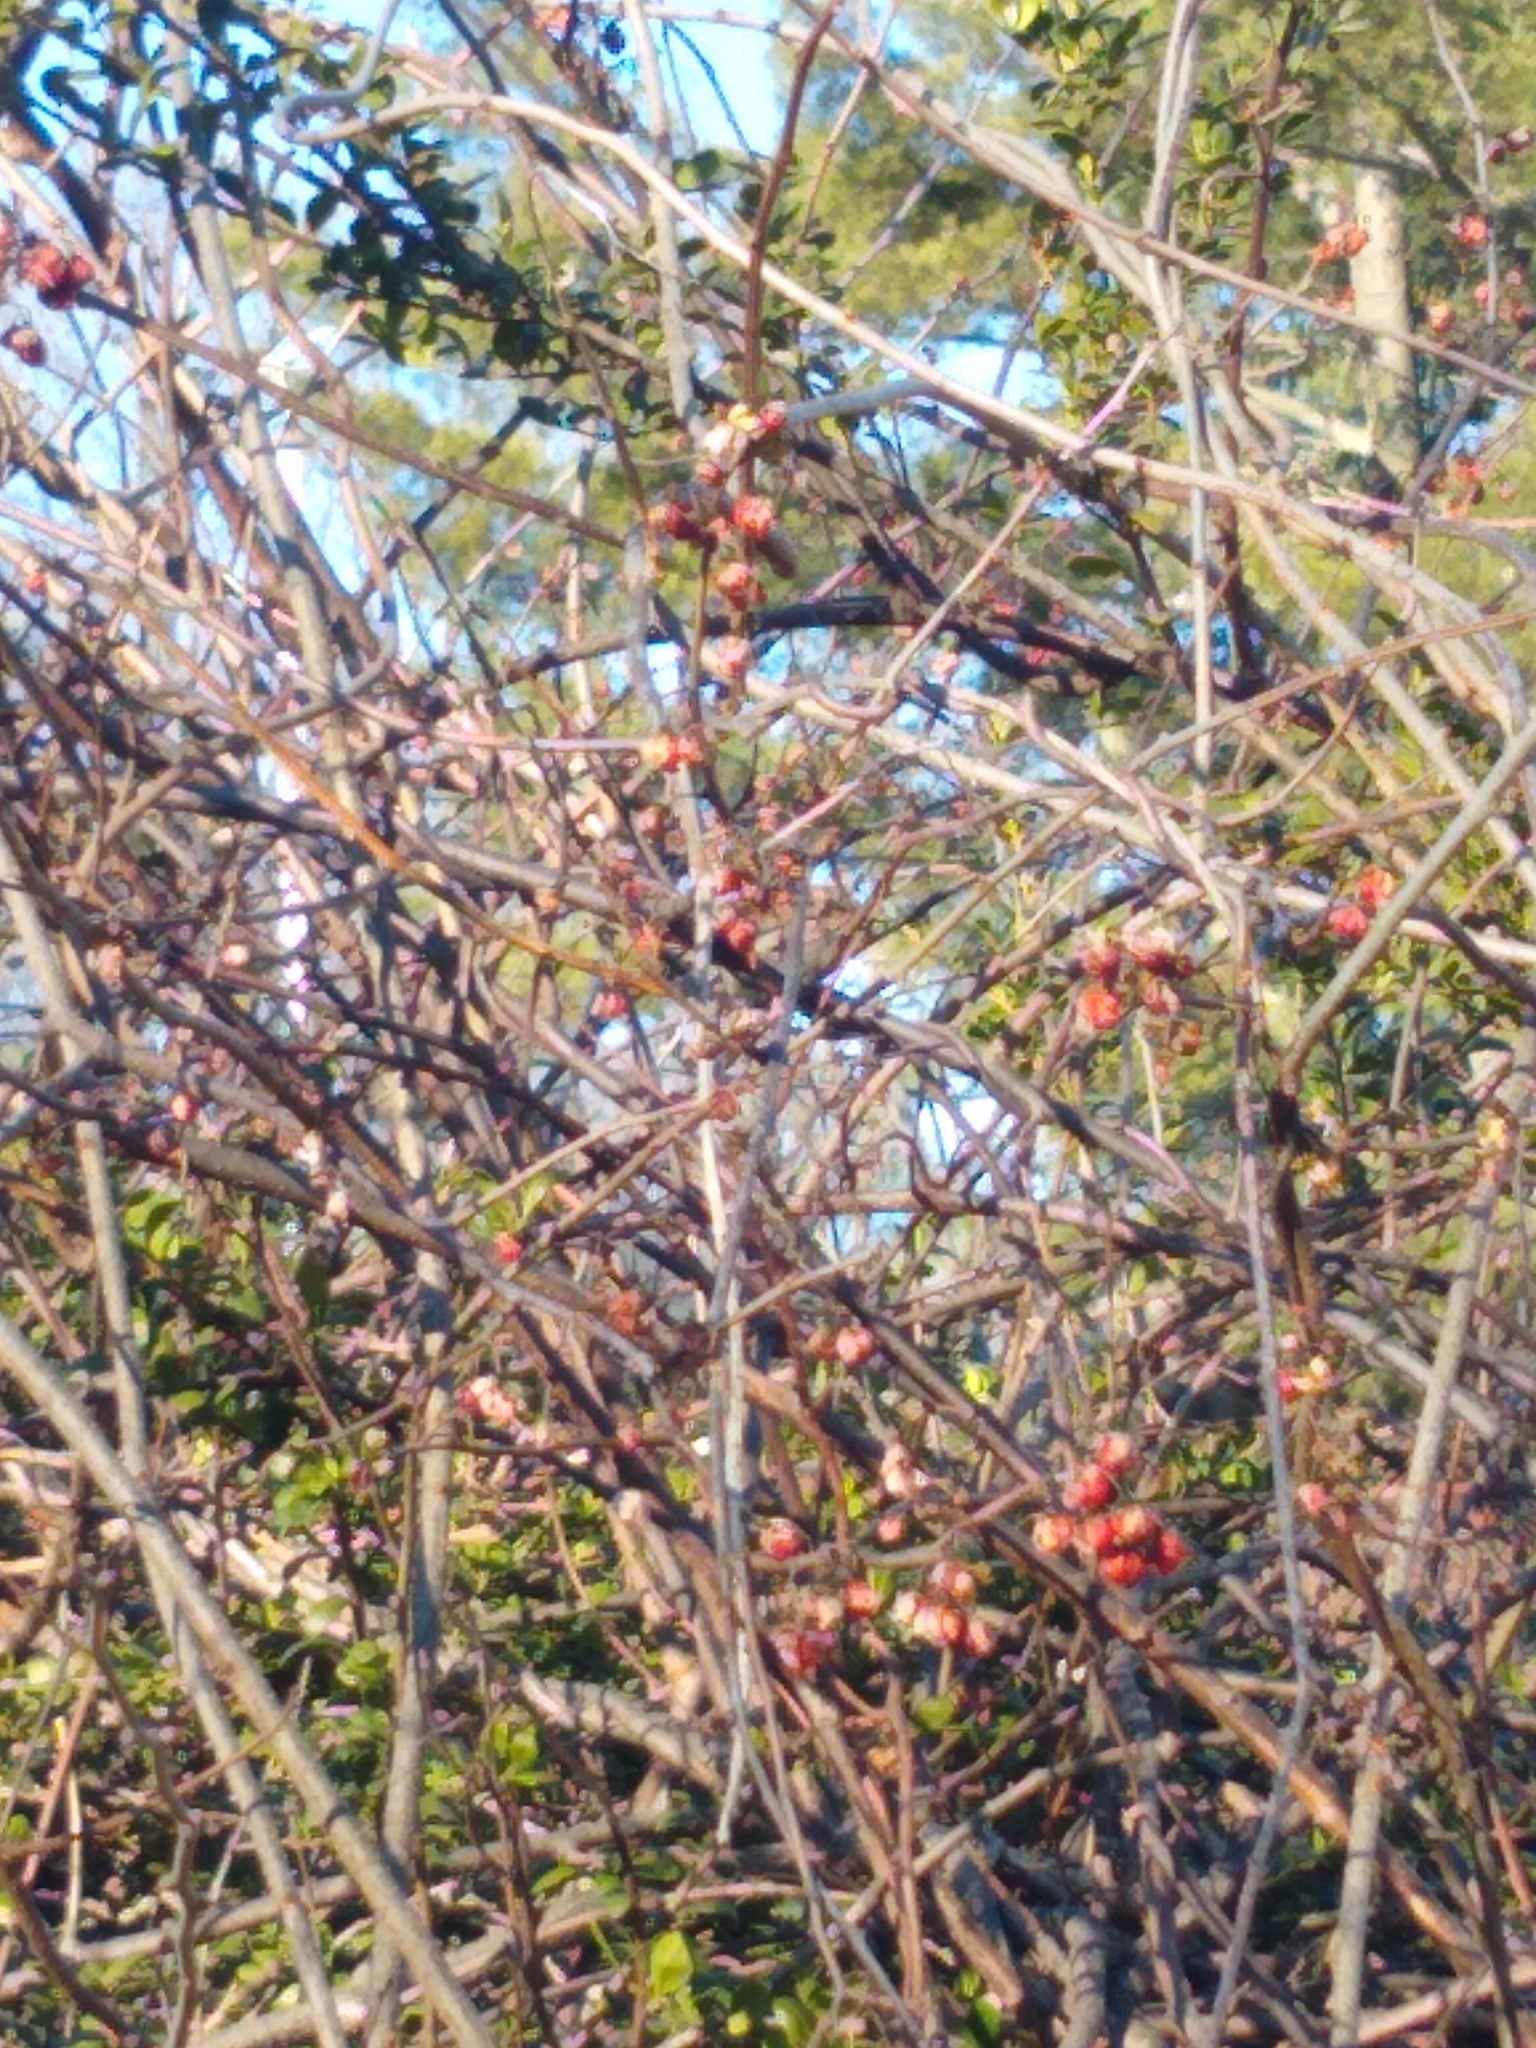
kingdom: Animalia
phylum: Chordata
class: Aves
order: Passeriformes
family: Passeridae
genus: Passer
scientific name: Passer domesticus
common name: House sparrow
